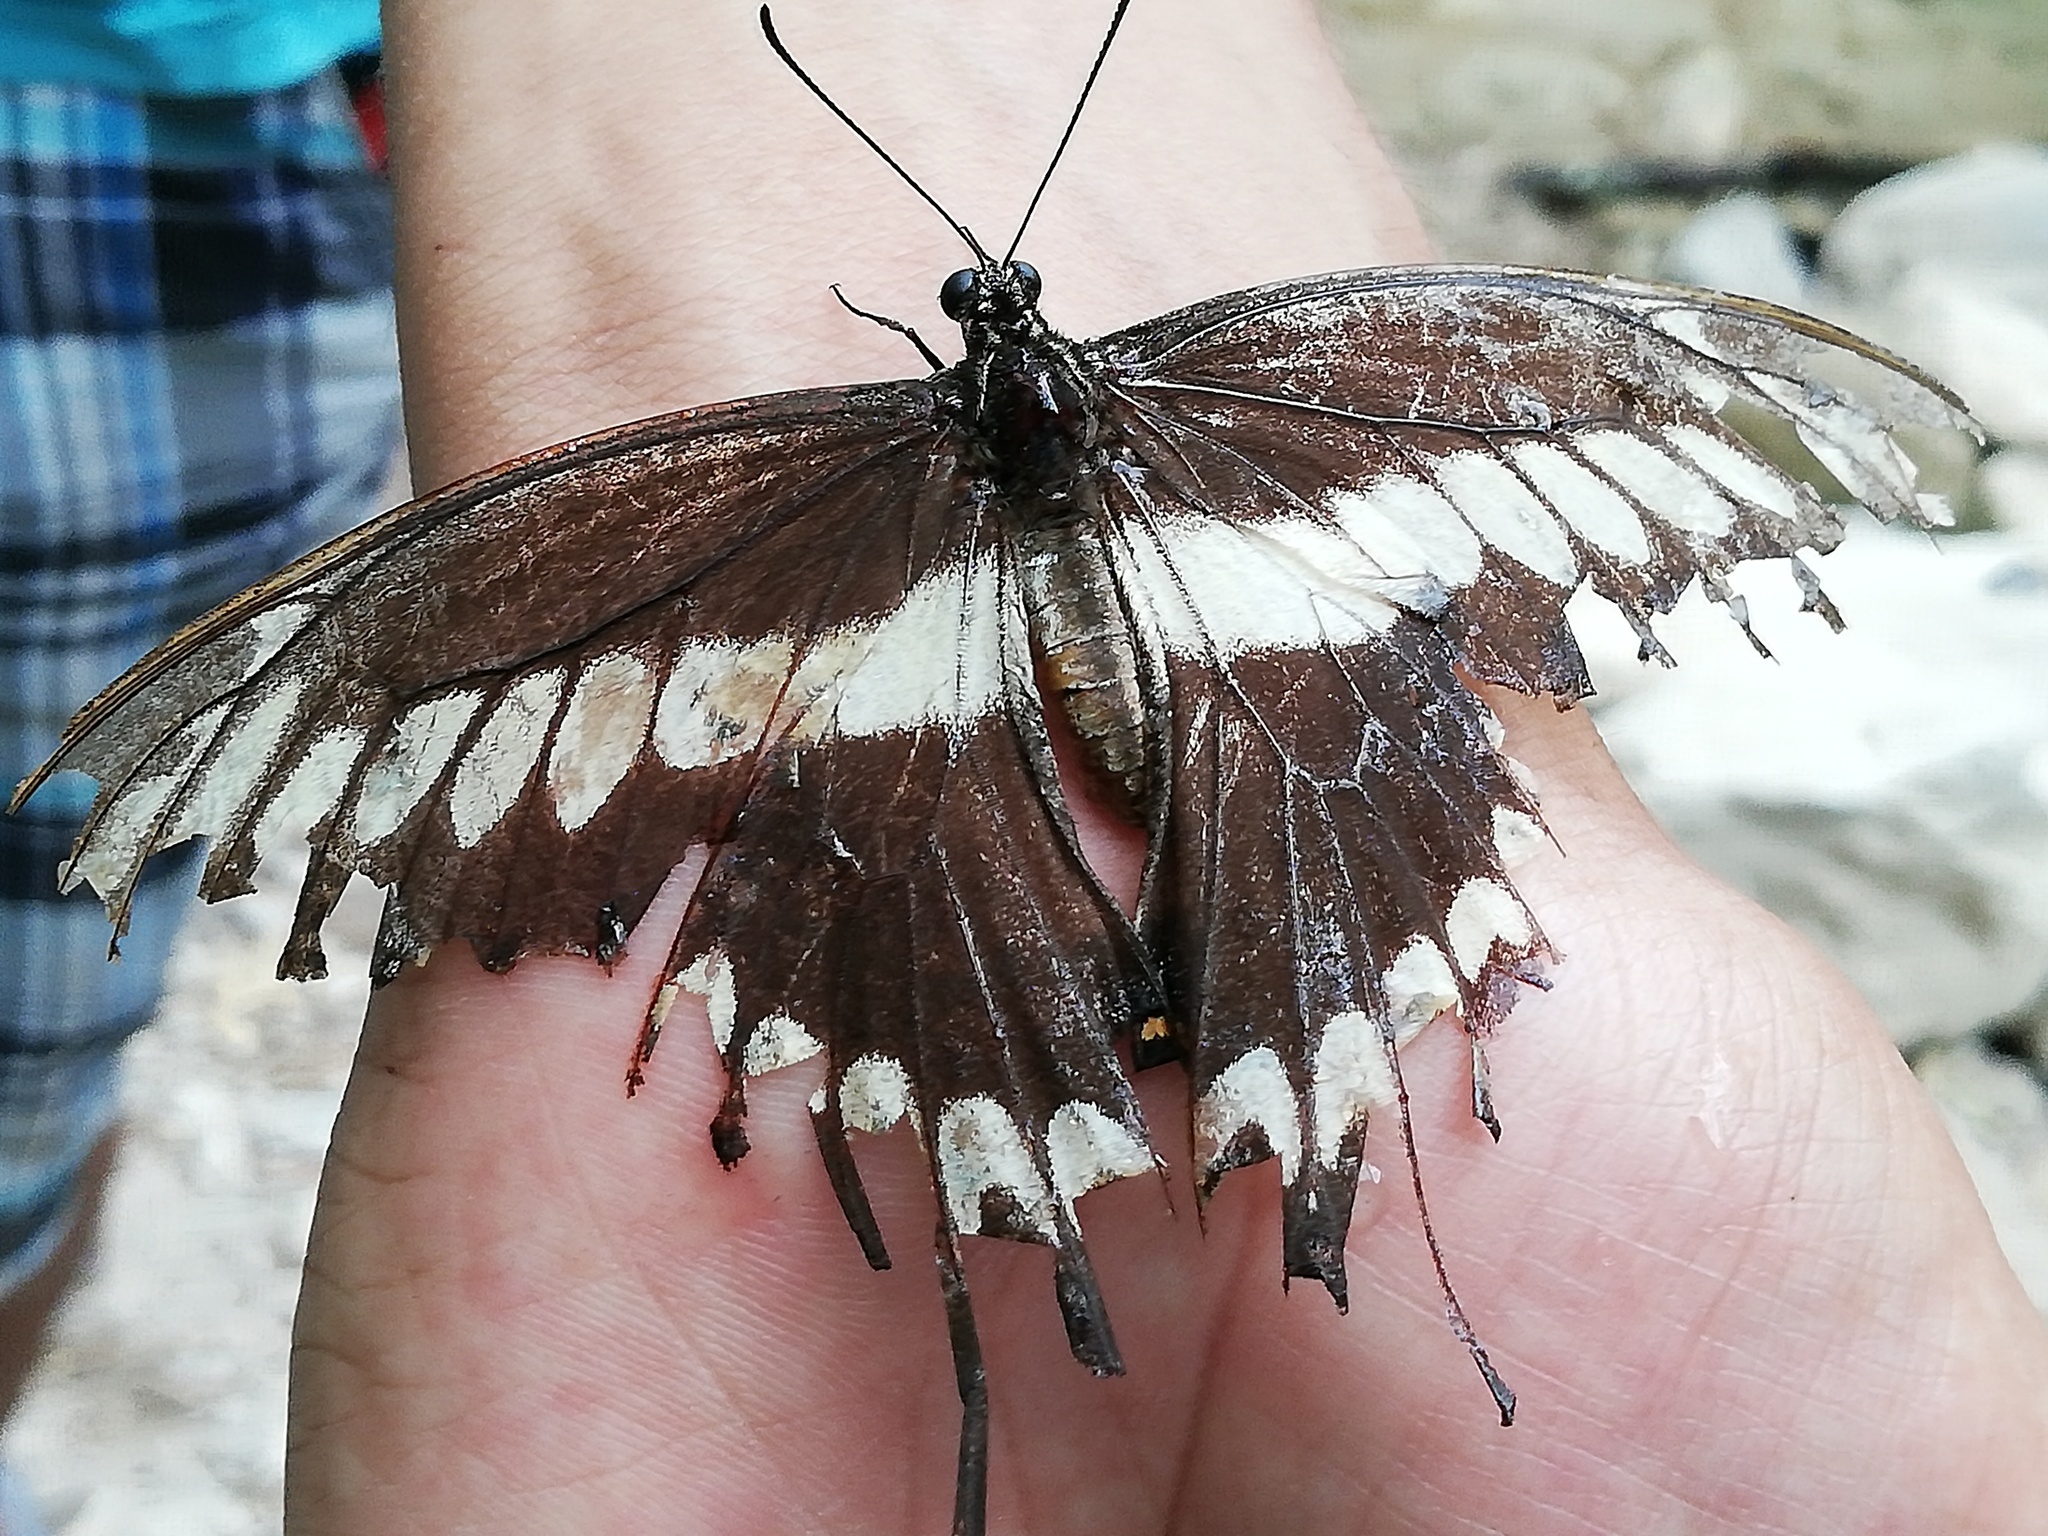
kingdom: Animalia
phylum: Arthropoda
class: Insecta
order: Lepidoptera
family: Papilionidae
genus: Papilio
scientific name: Papilio ornythion
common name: Ornythion swallowtail
